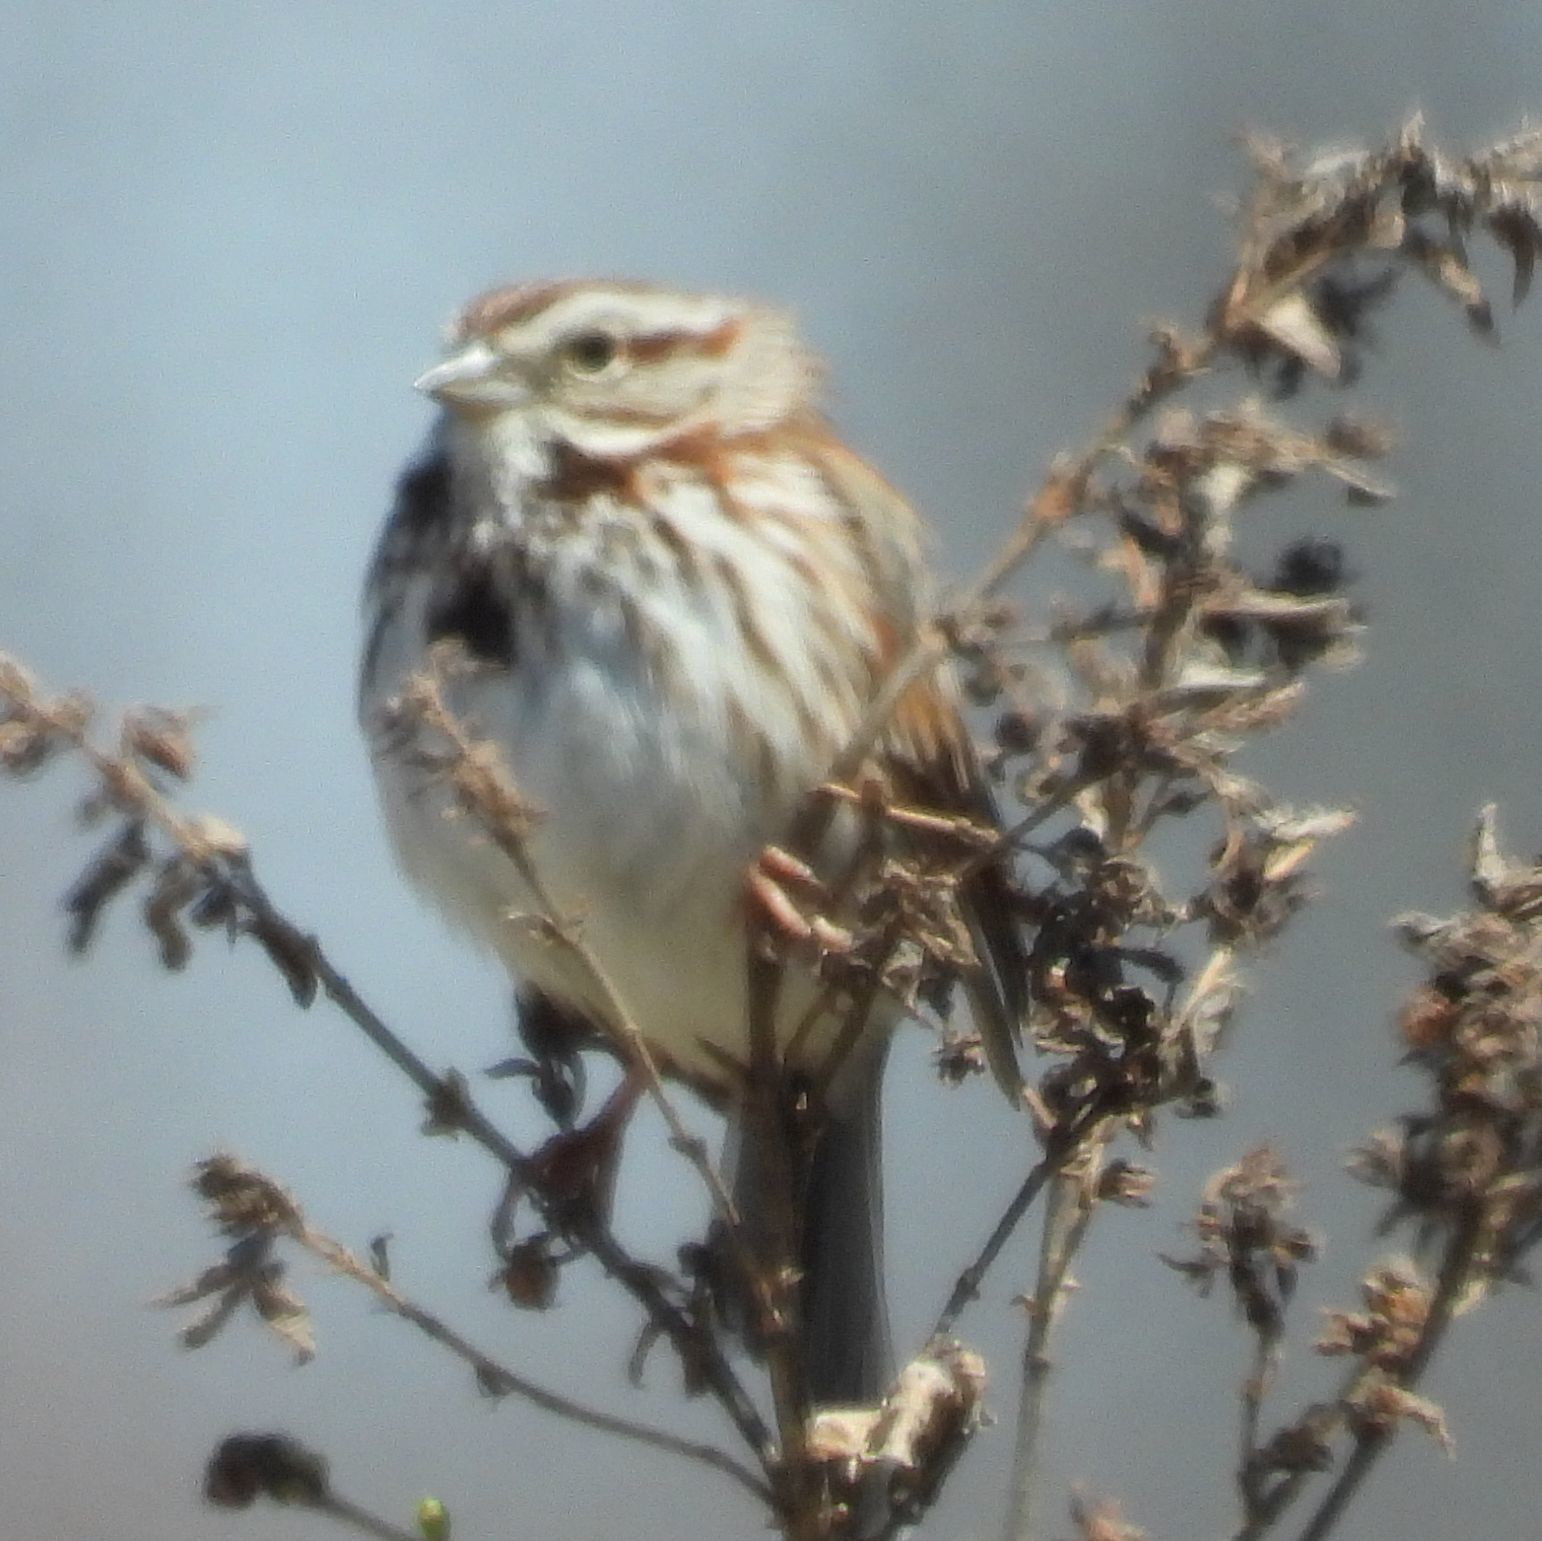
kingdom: Animalia
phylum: Chordata
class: Aves
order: Passeriformes
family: Passerellidae
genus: Melospiza
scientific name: Melospiza melodia
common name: Song sparrow
